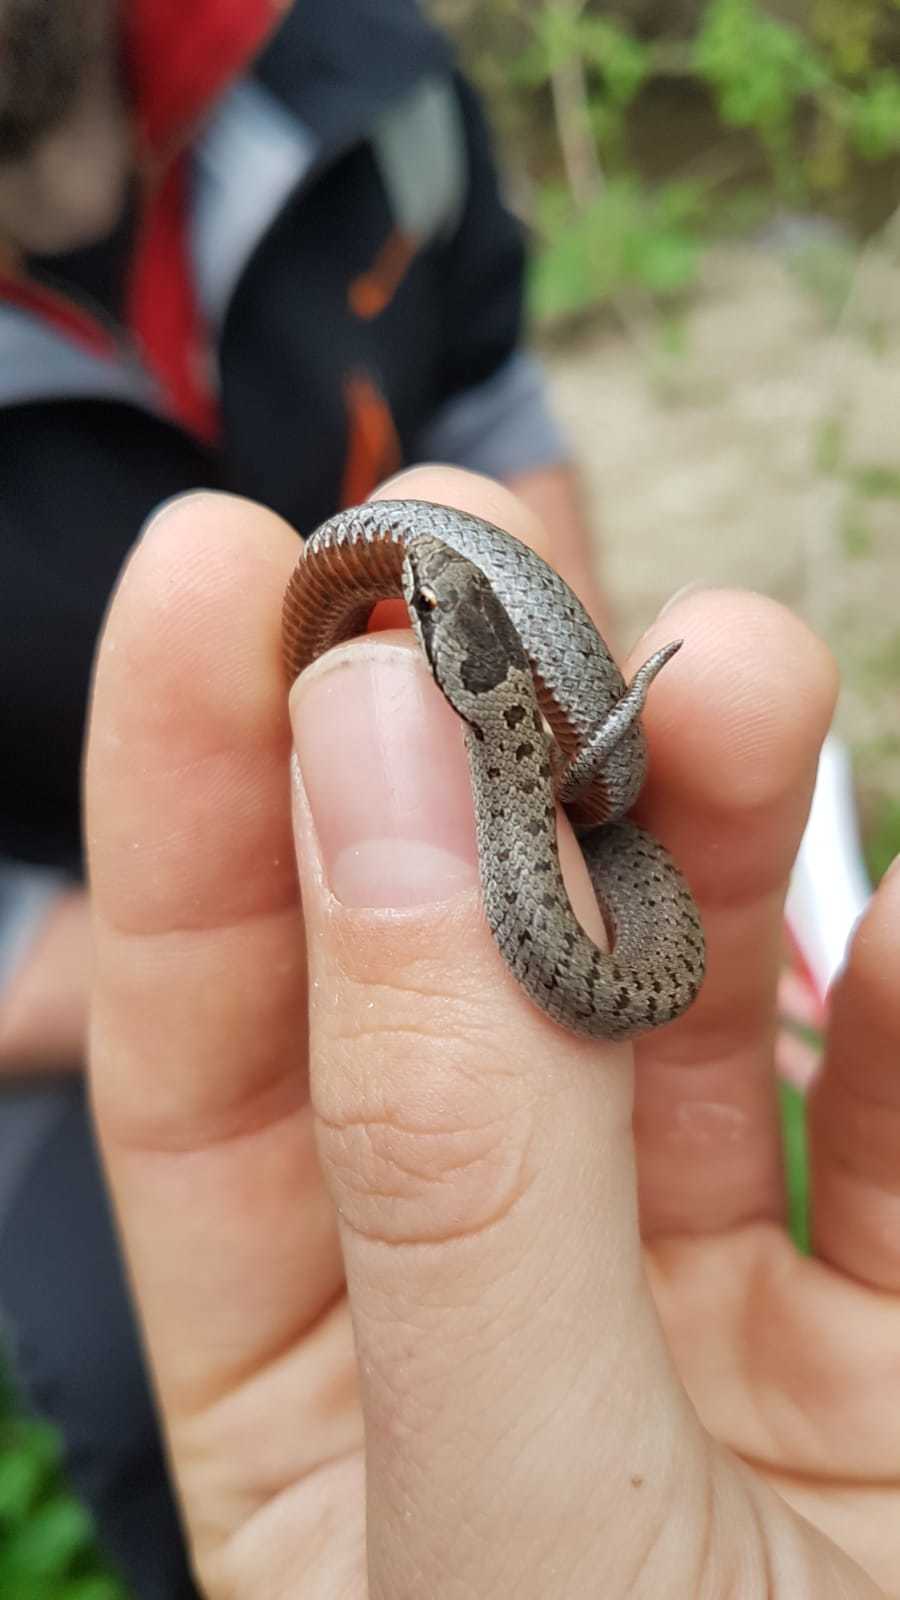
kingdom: Animalia
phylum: Chordata
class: Squamata
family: Colubridae
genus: Coronella
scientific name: Coronella austriaca
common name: Smooth snake
